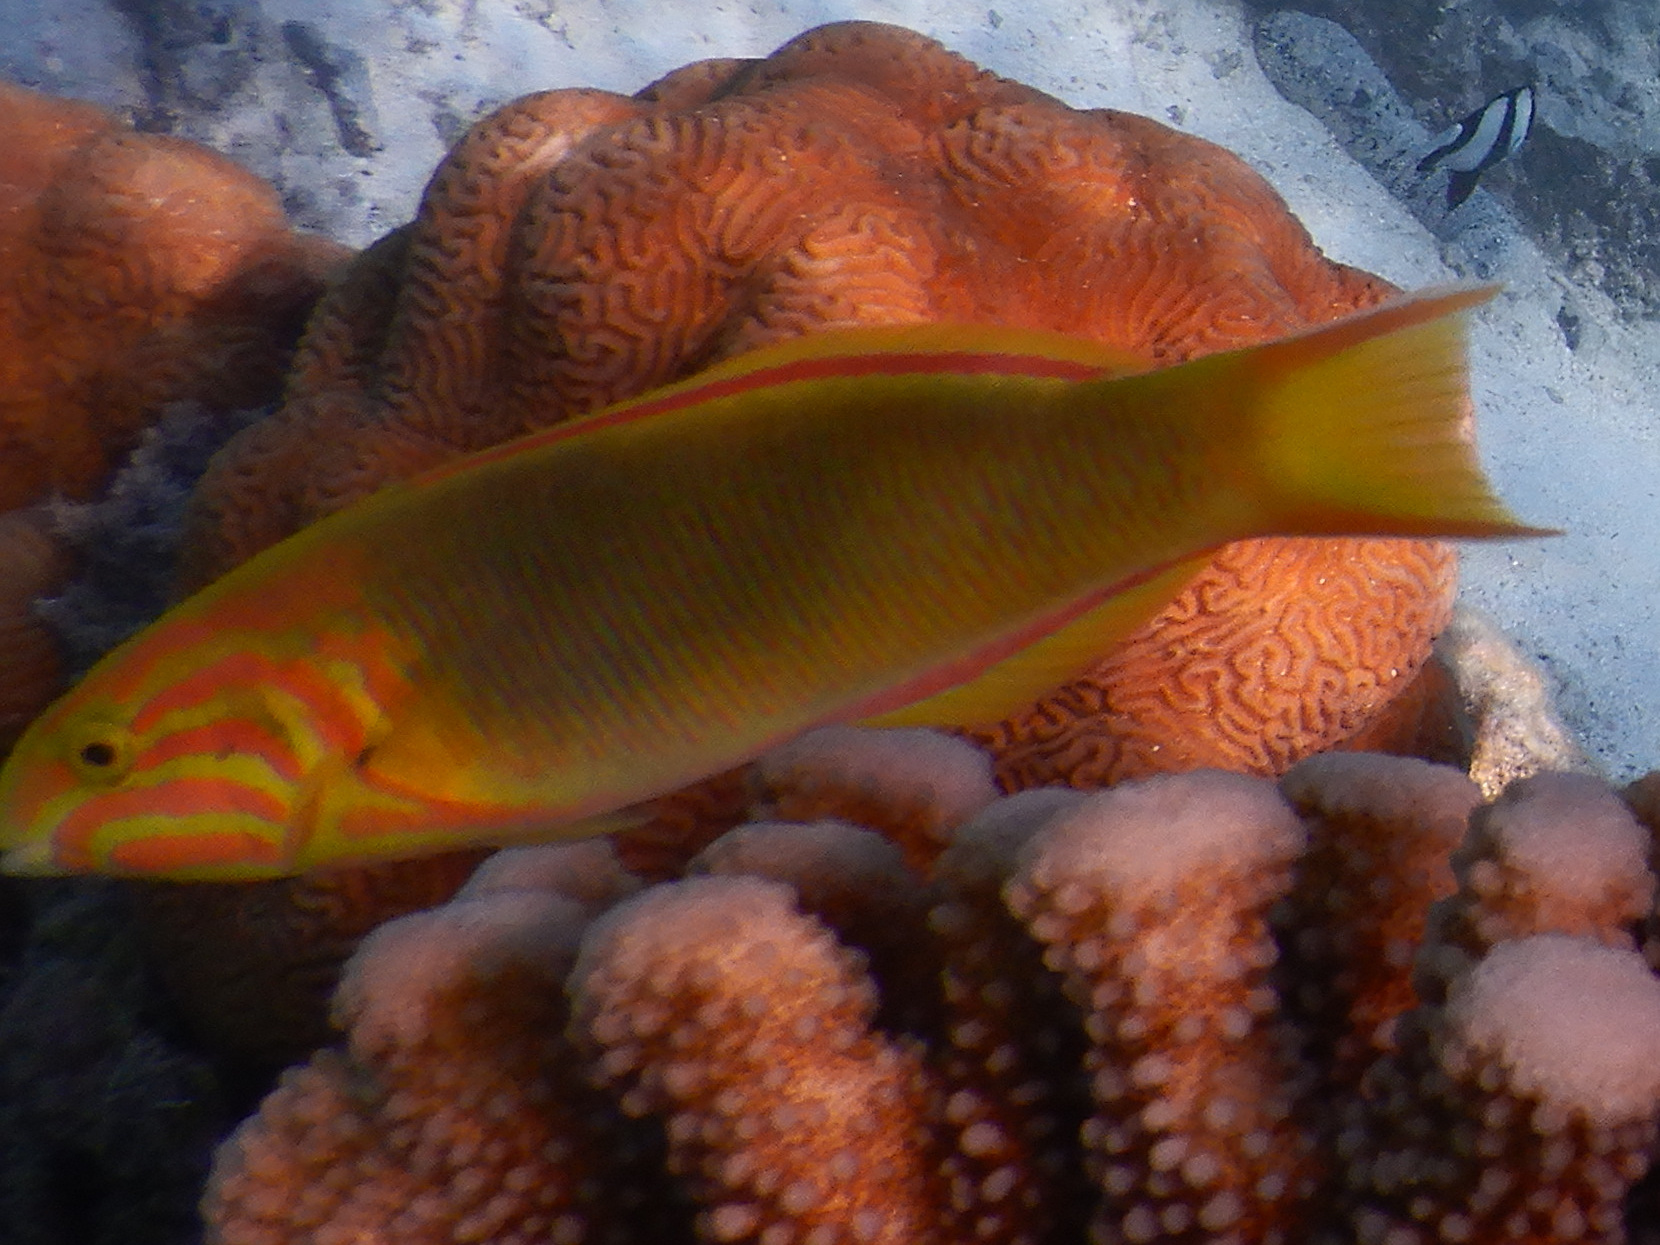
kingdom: Animalia
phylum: Chordata
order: Perciformes
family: Labridae
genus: Thalassoma
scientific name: Thalassoma lutescens
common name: Green moon wrasse
